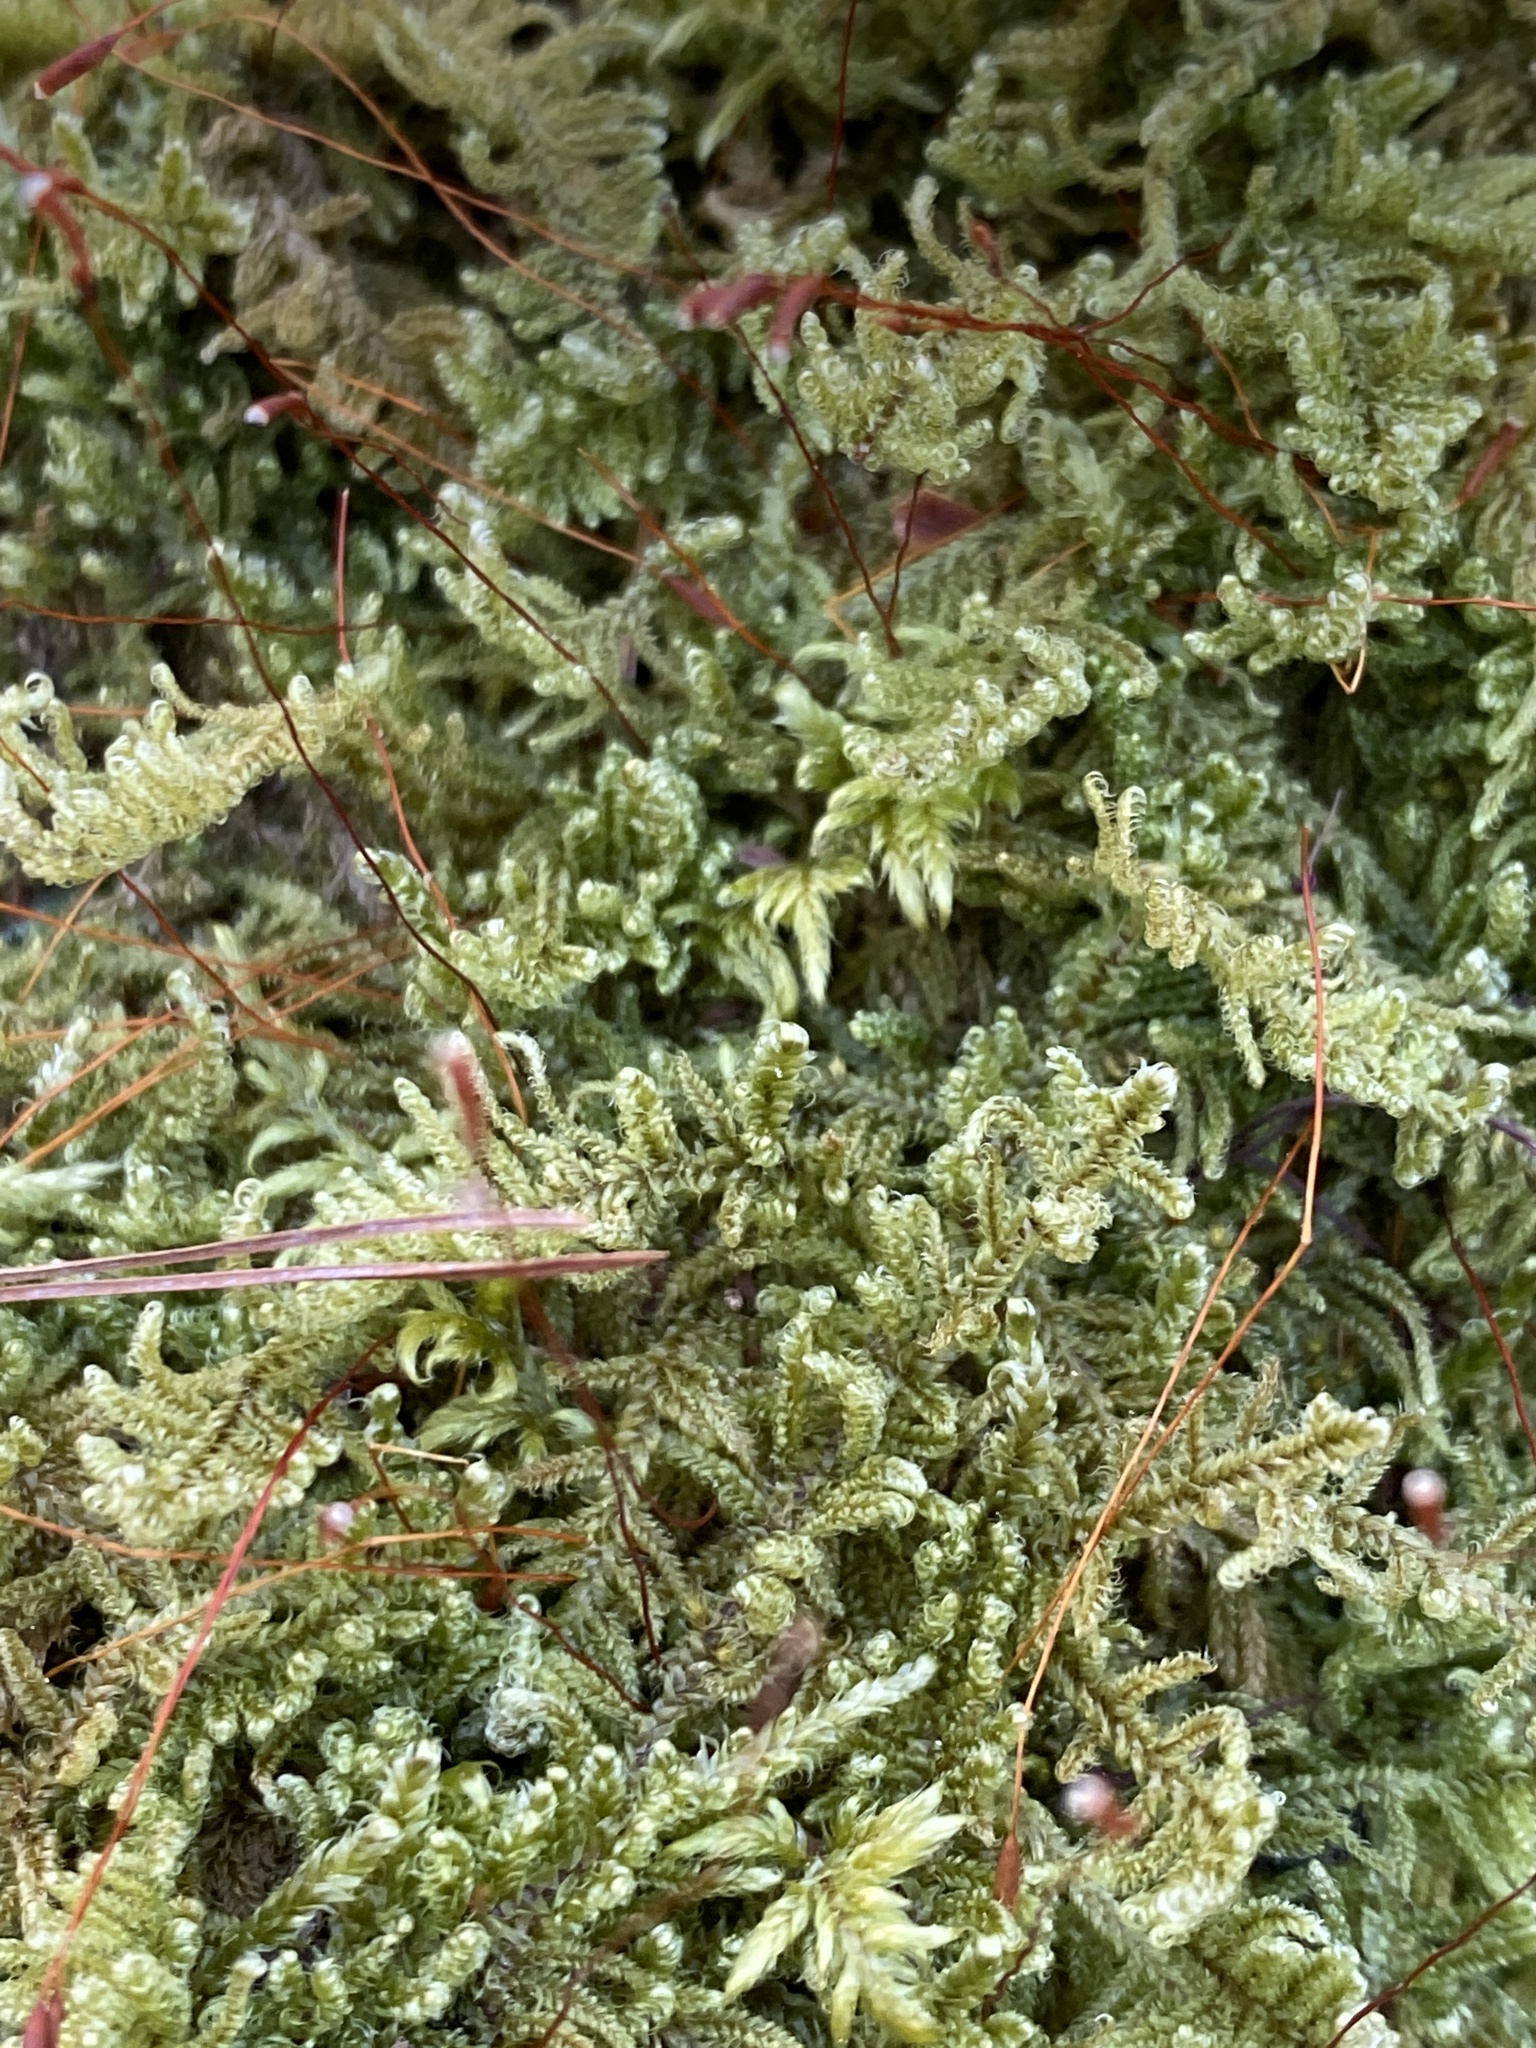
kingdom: Plantae
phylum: Bryophyta
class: Bryopsida
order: Hypnales
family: Callicladiaceae
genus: Callicladium
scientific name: Callicladium imponens
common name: Brocade moss
